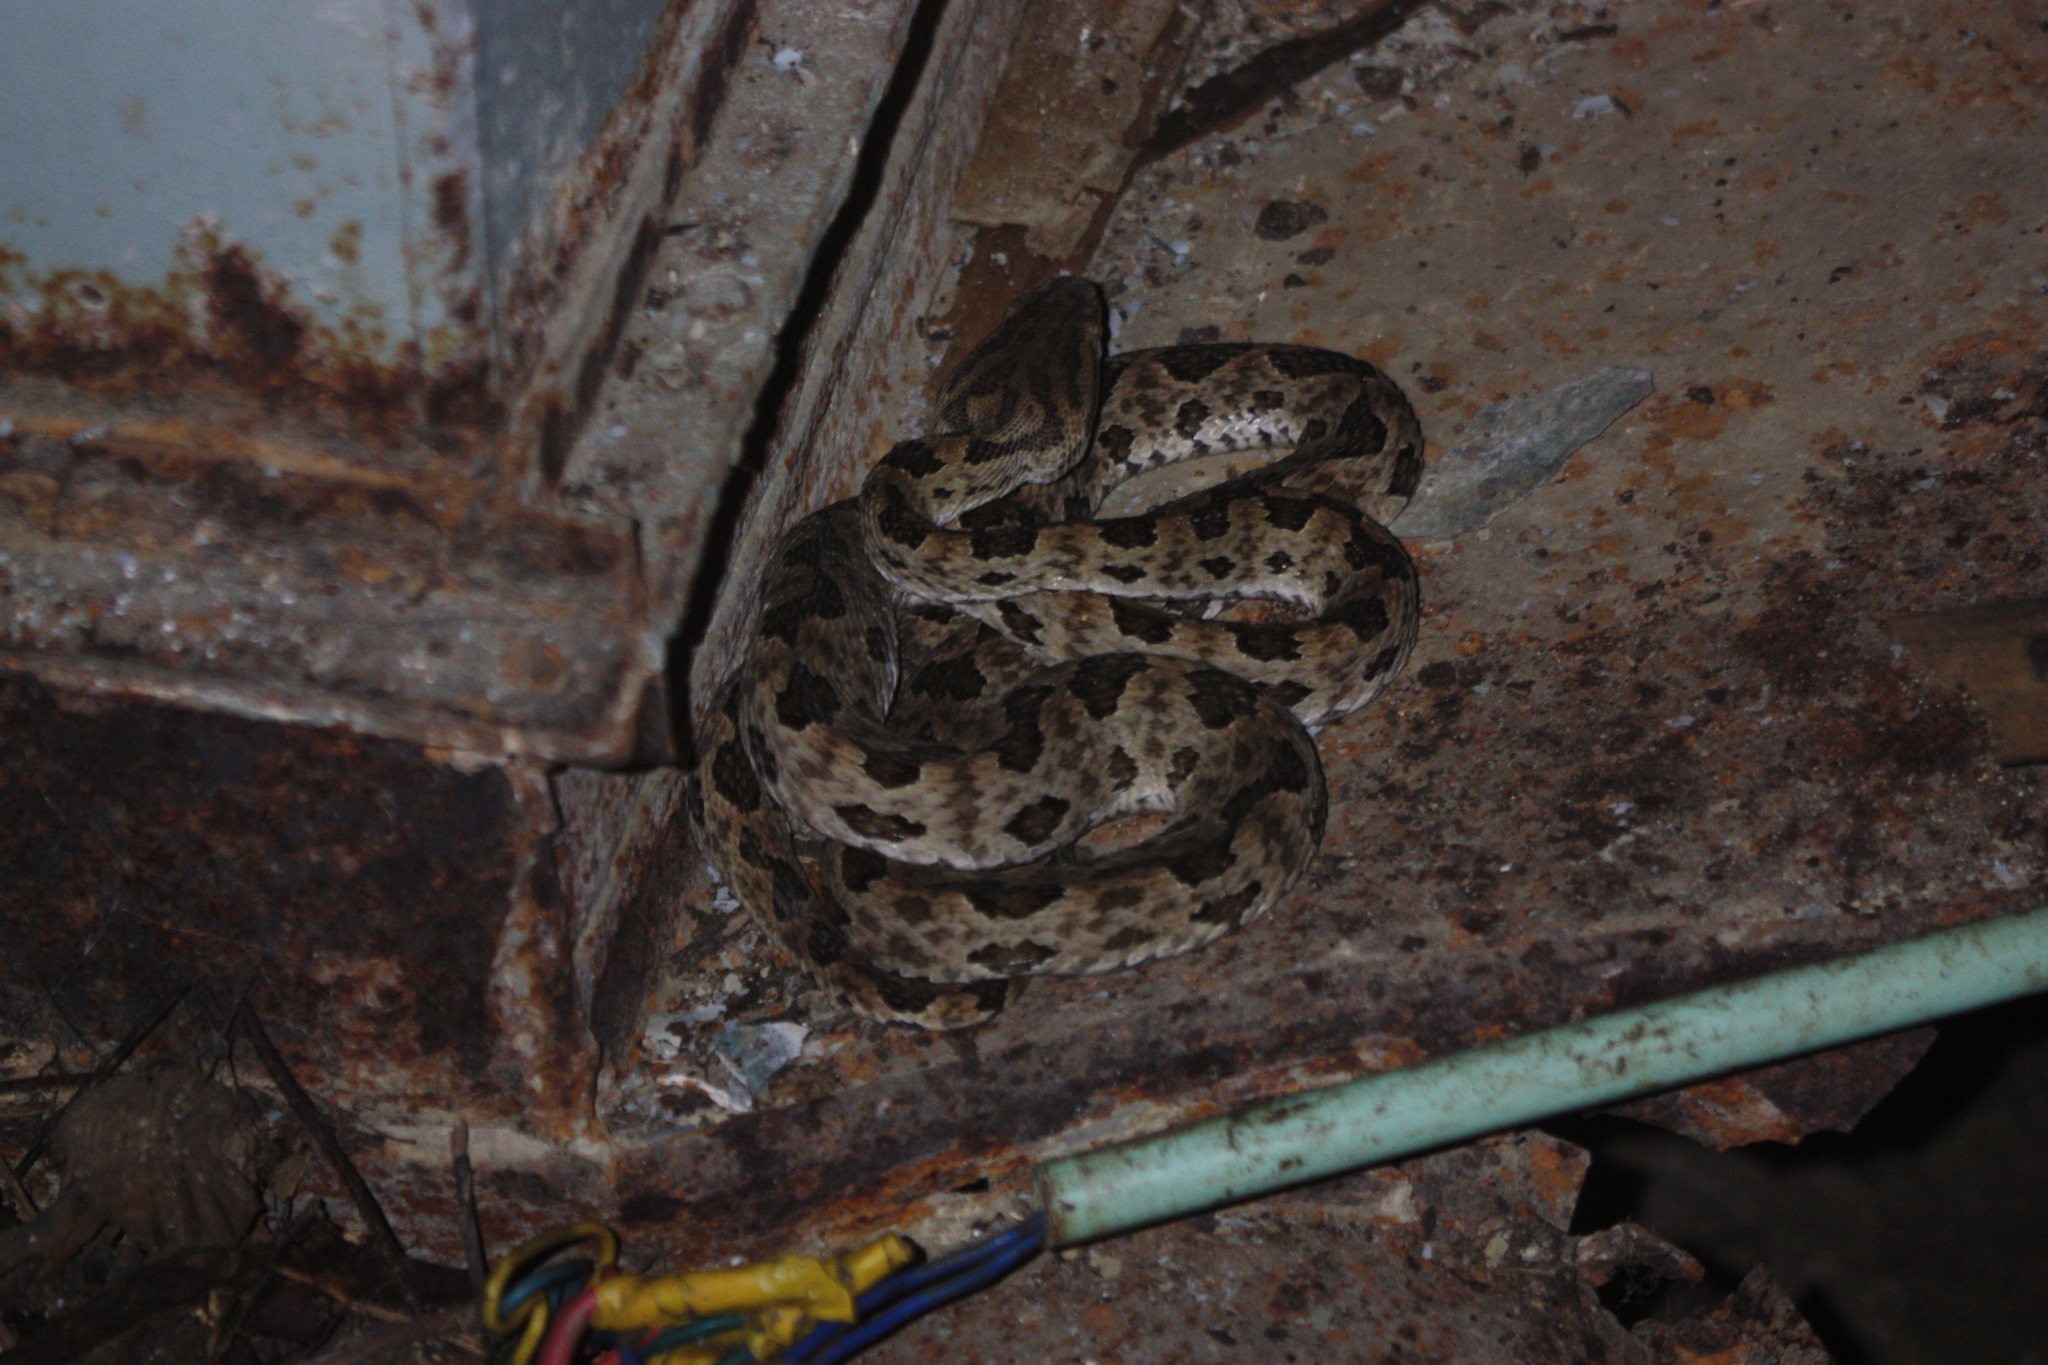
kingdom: Animalia
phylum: Chordata
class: Squamata
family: Viperidae
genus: Protobothrops
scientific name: Protobothrops mucrosquamatus
